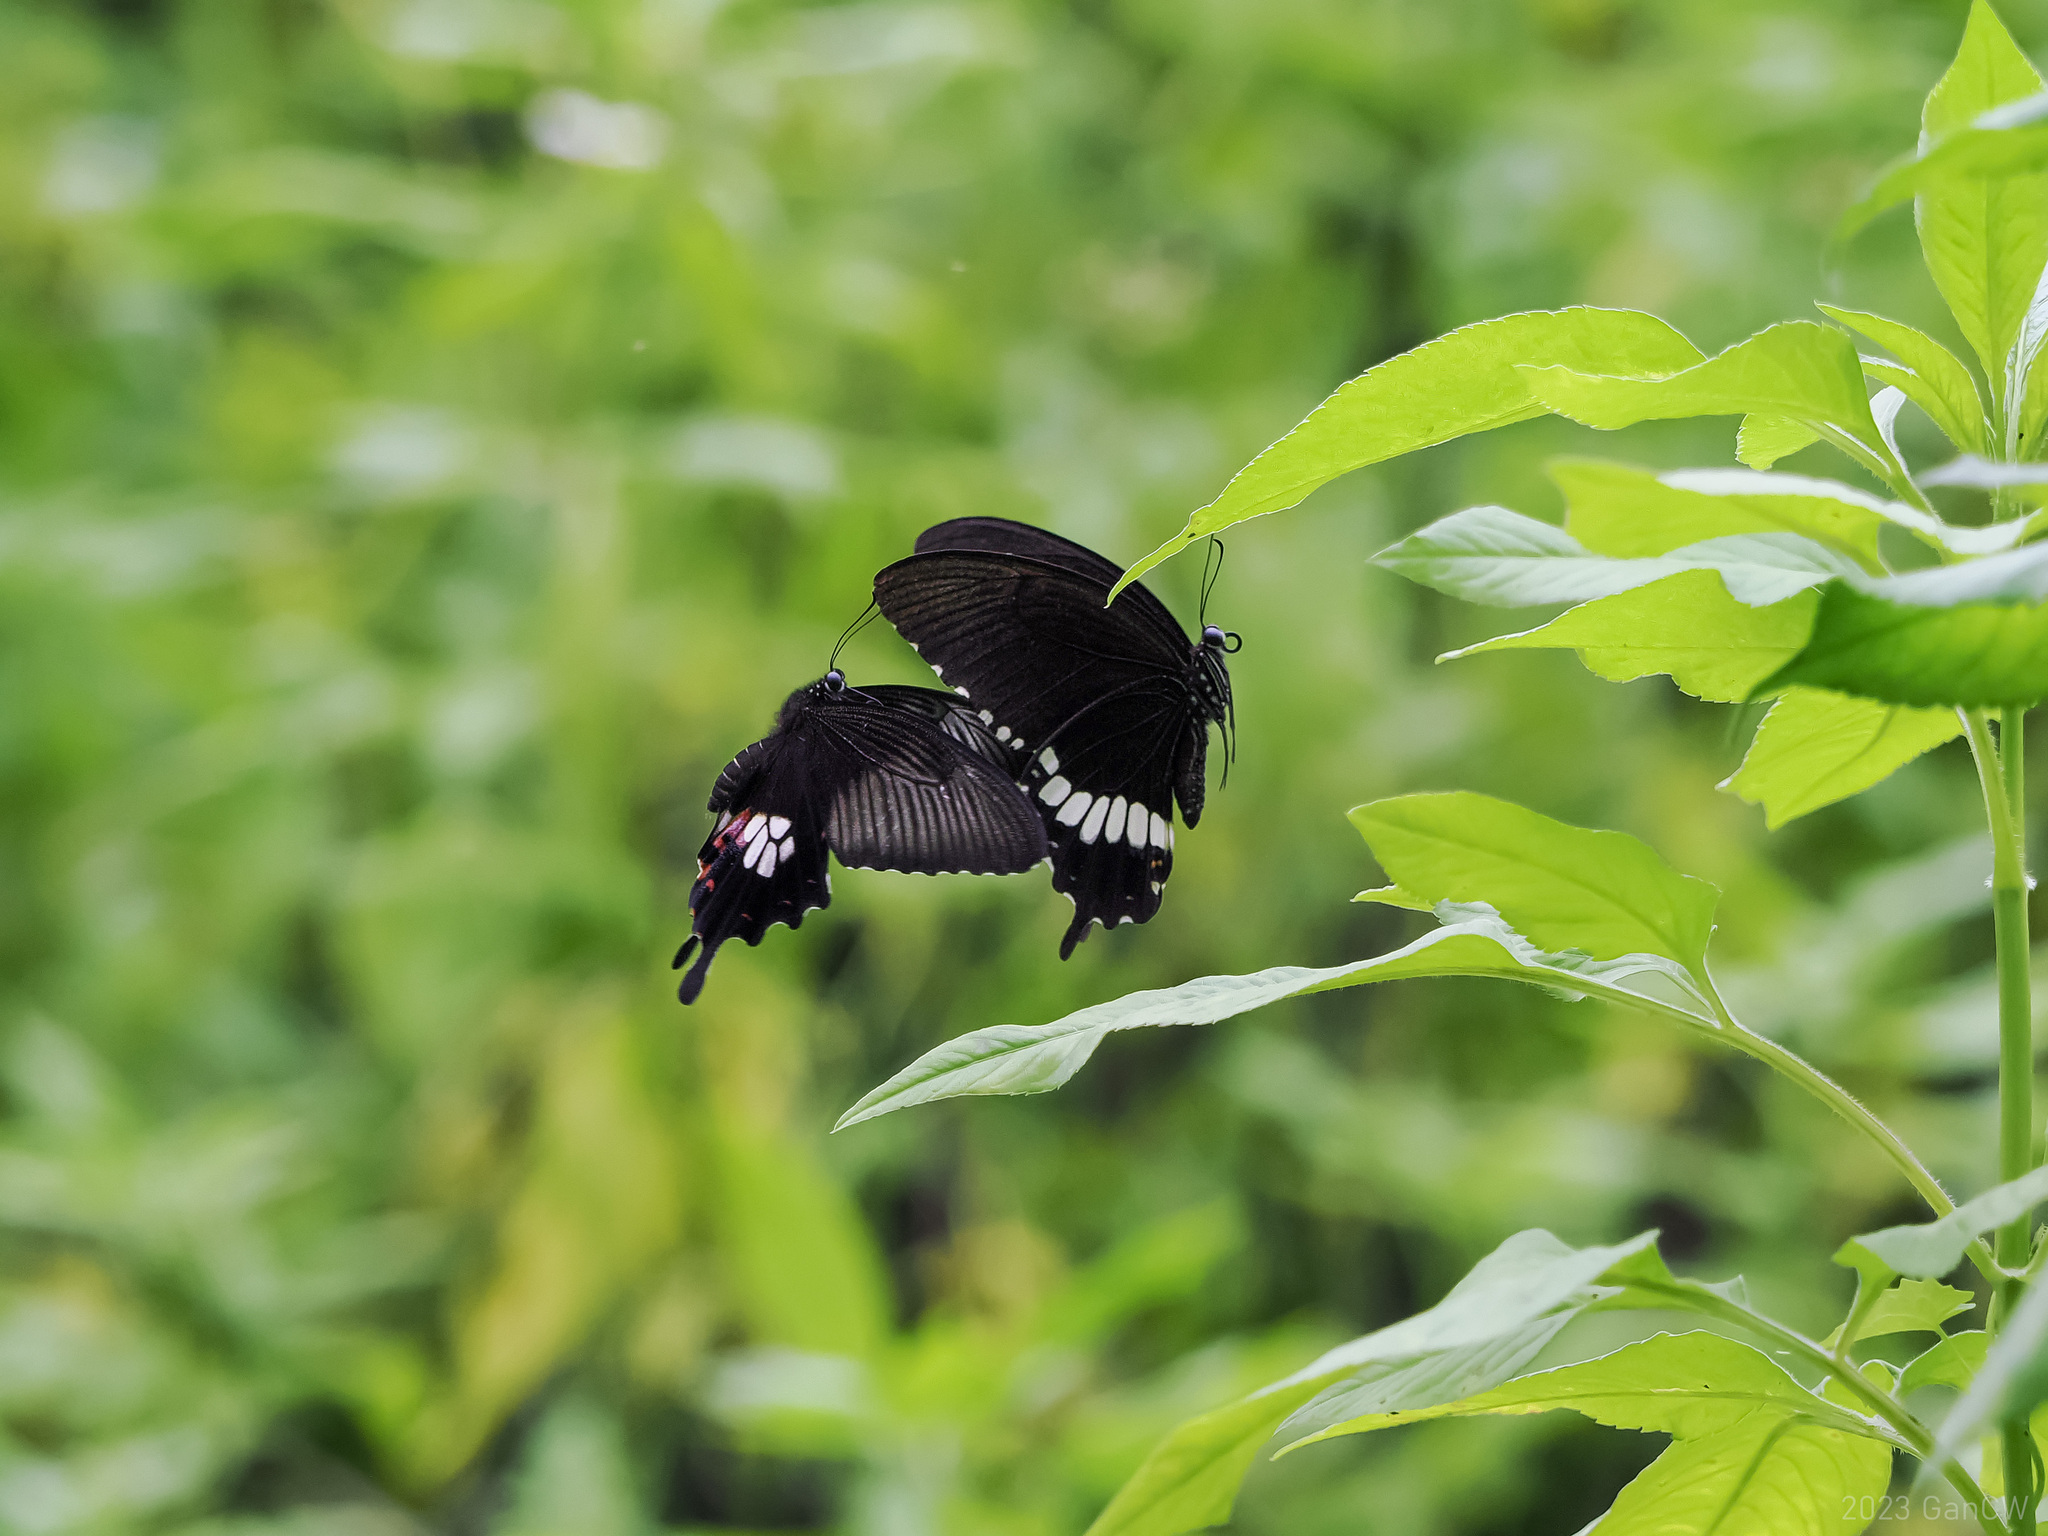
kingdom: Animalia
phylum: Arthropoda
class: Insecta
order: Lepidoptera
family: Papilionidae
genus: Papilio
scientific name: Papilio polytes
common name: Common mormon
